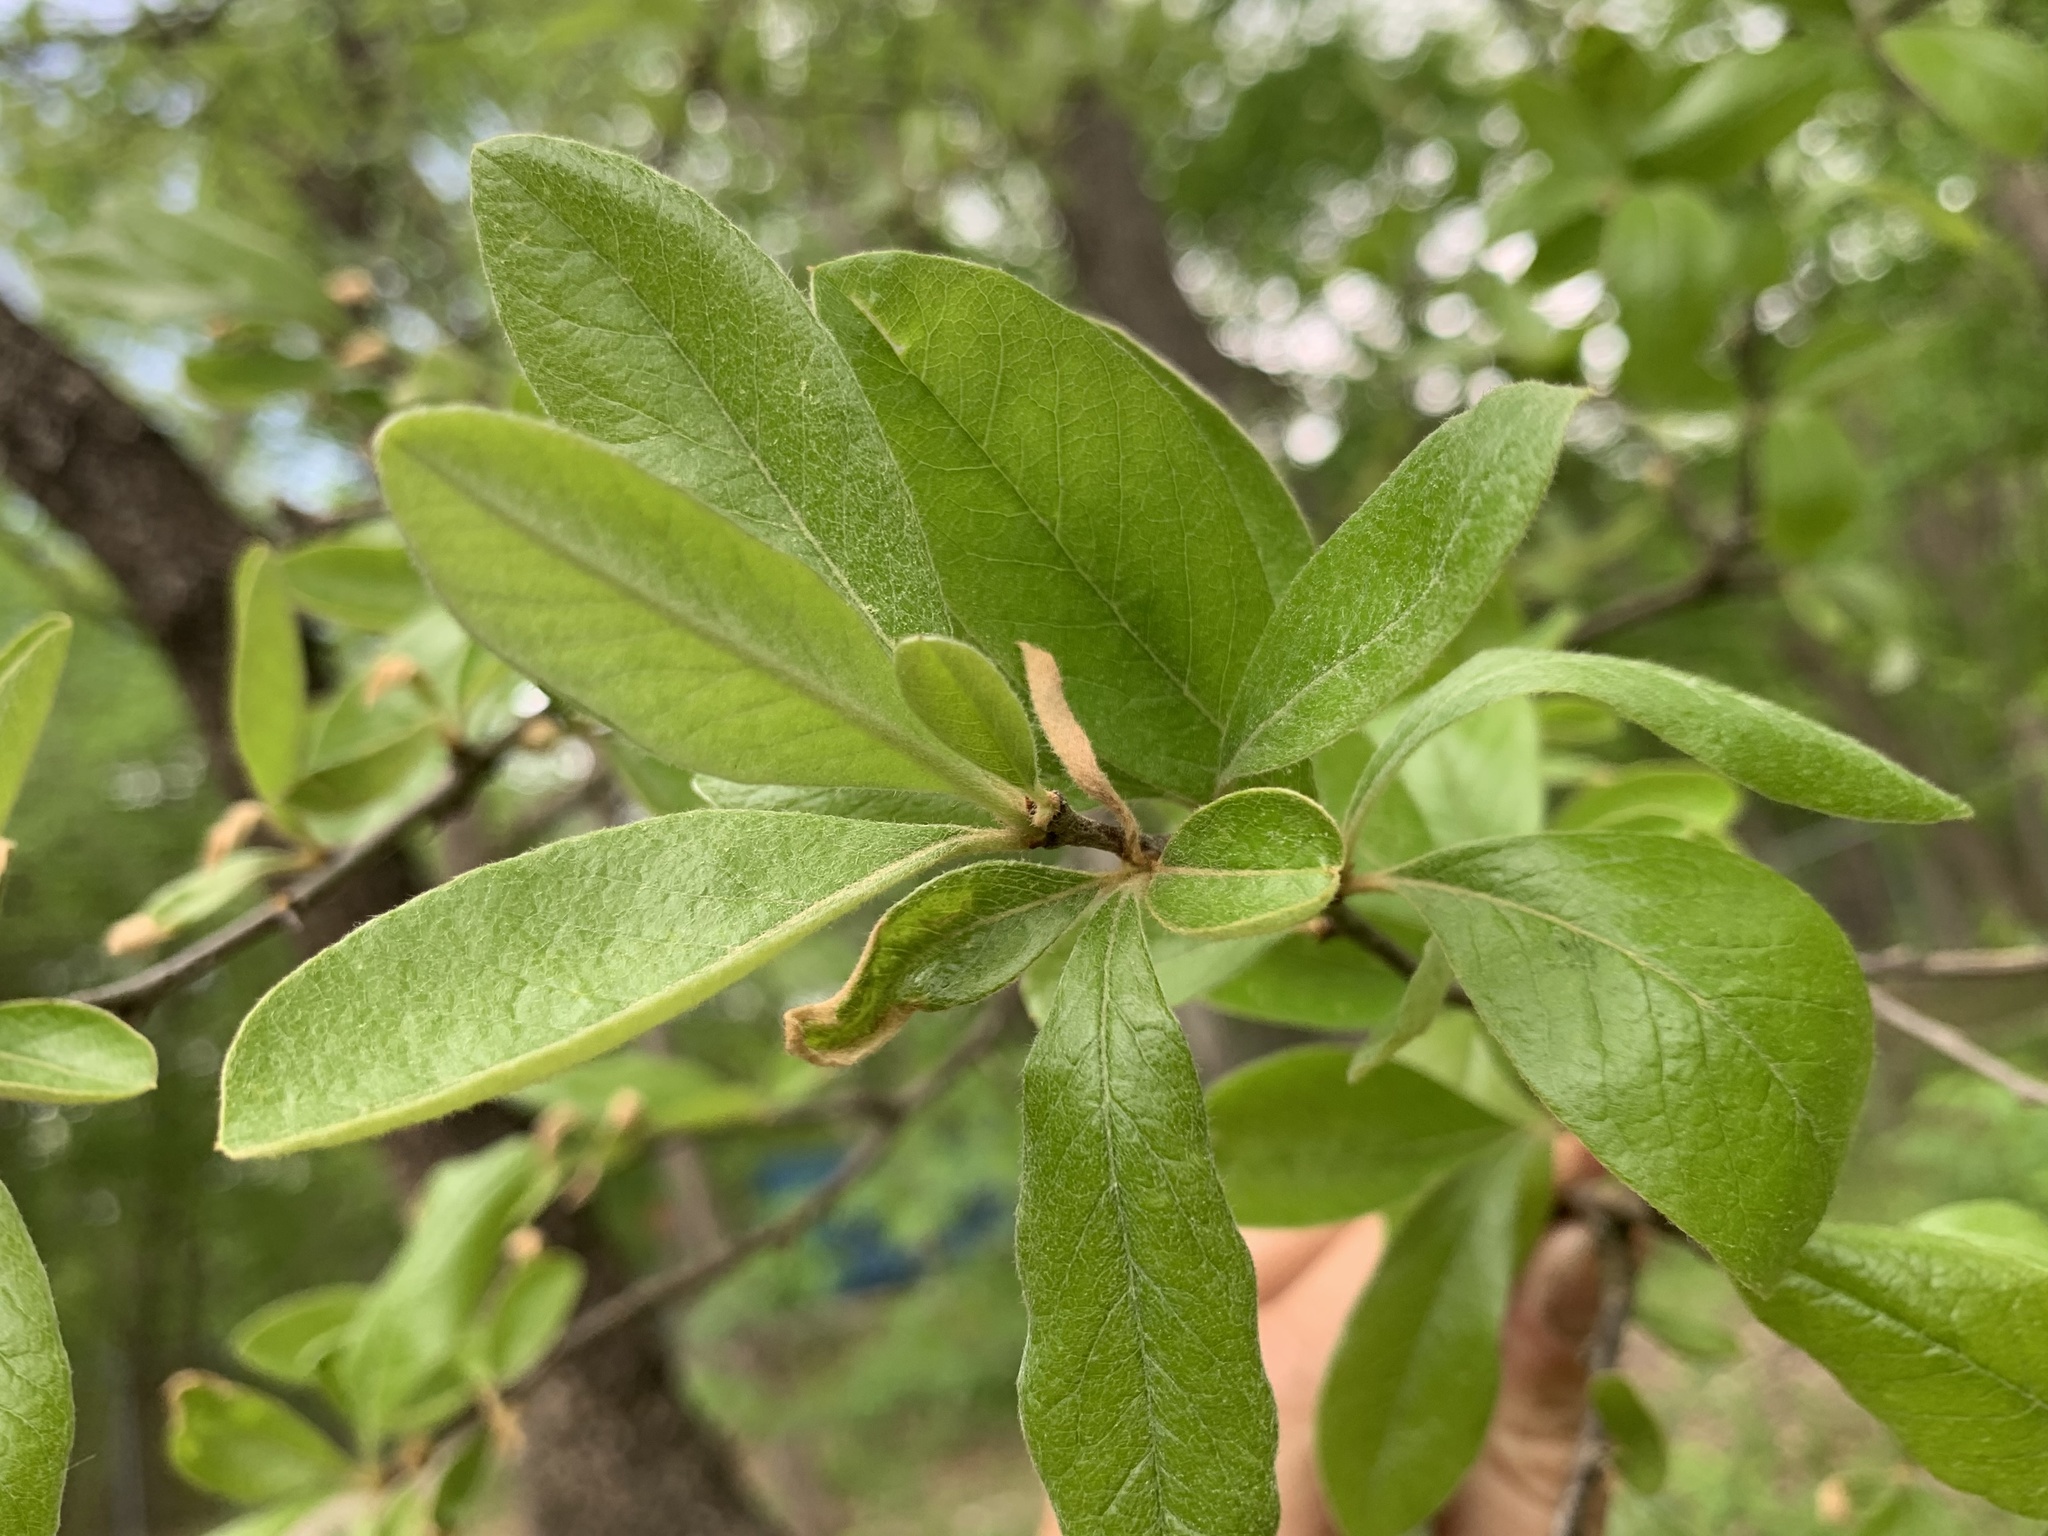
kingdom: Plantae
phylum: Tracheophyta
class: Magnoliopsida
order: Ericales
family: Sapotaceae
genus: Sideroxylon
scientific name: Sideroxylon lanuginosum
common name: Chittamwood
